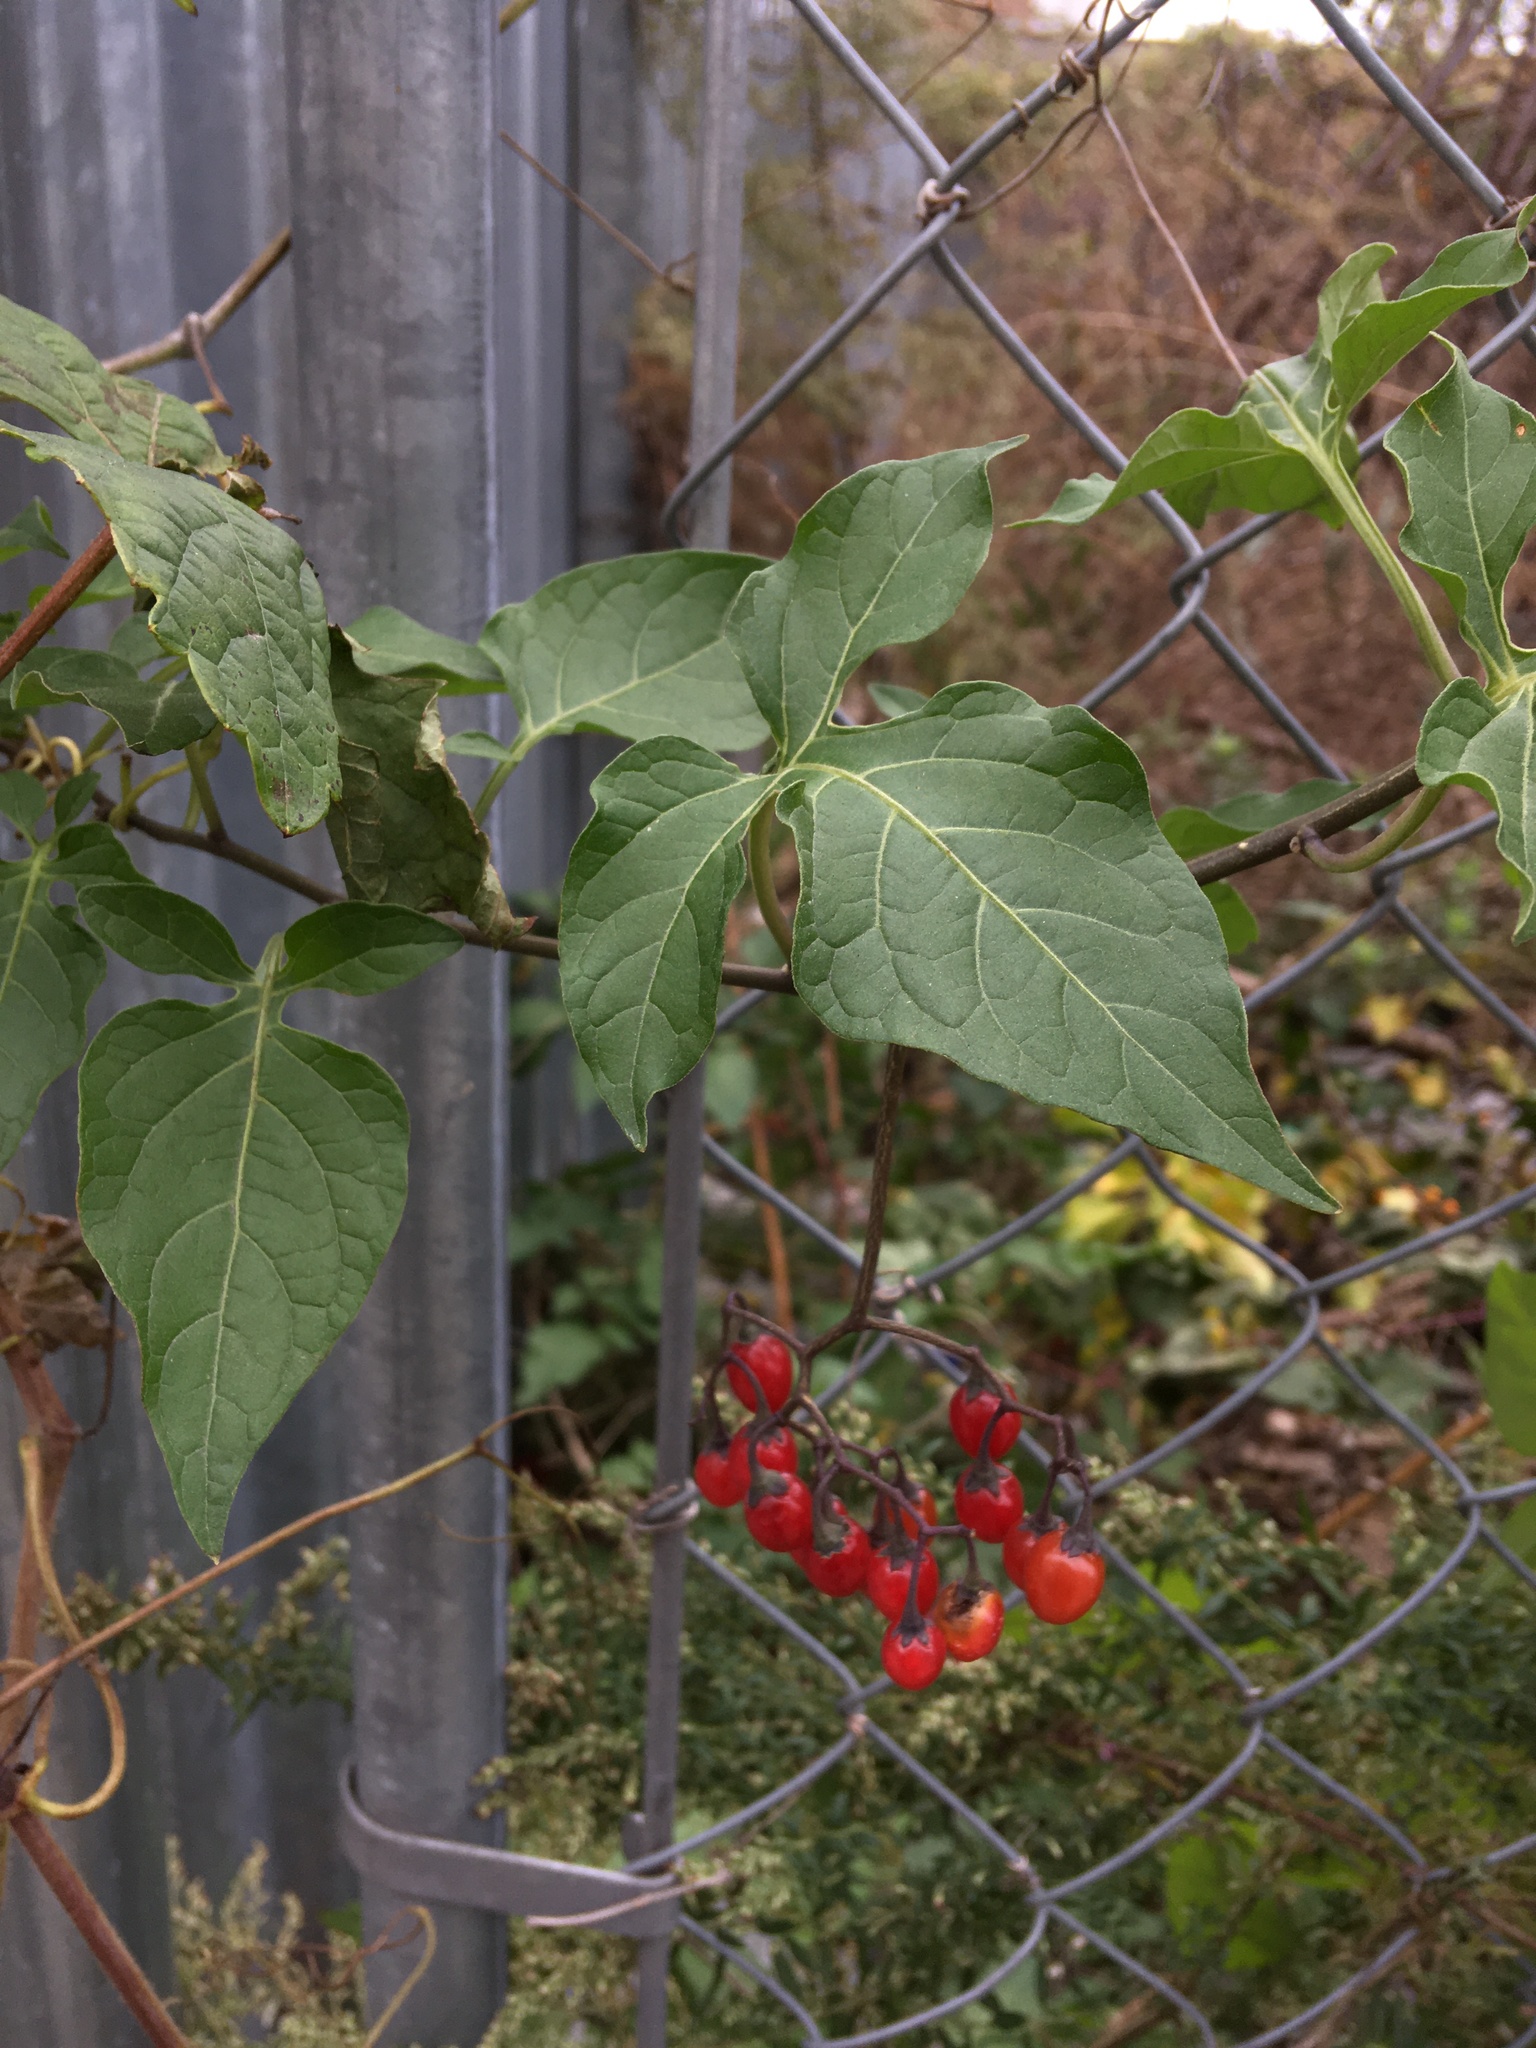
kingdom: Plantae
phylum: Tracheophyta
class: Magnoliopsida
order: Solanales
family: Solanaceae
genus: Solanum
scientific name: Solanum dulcamara
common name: Climbing nightshade
